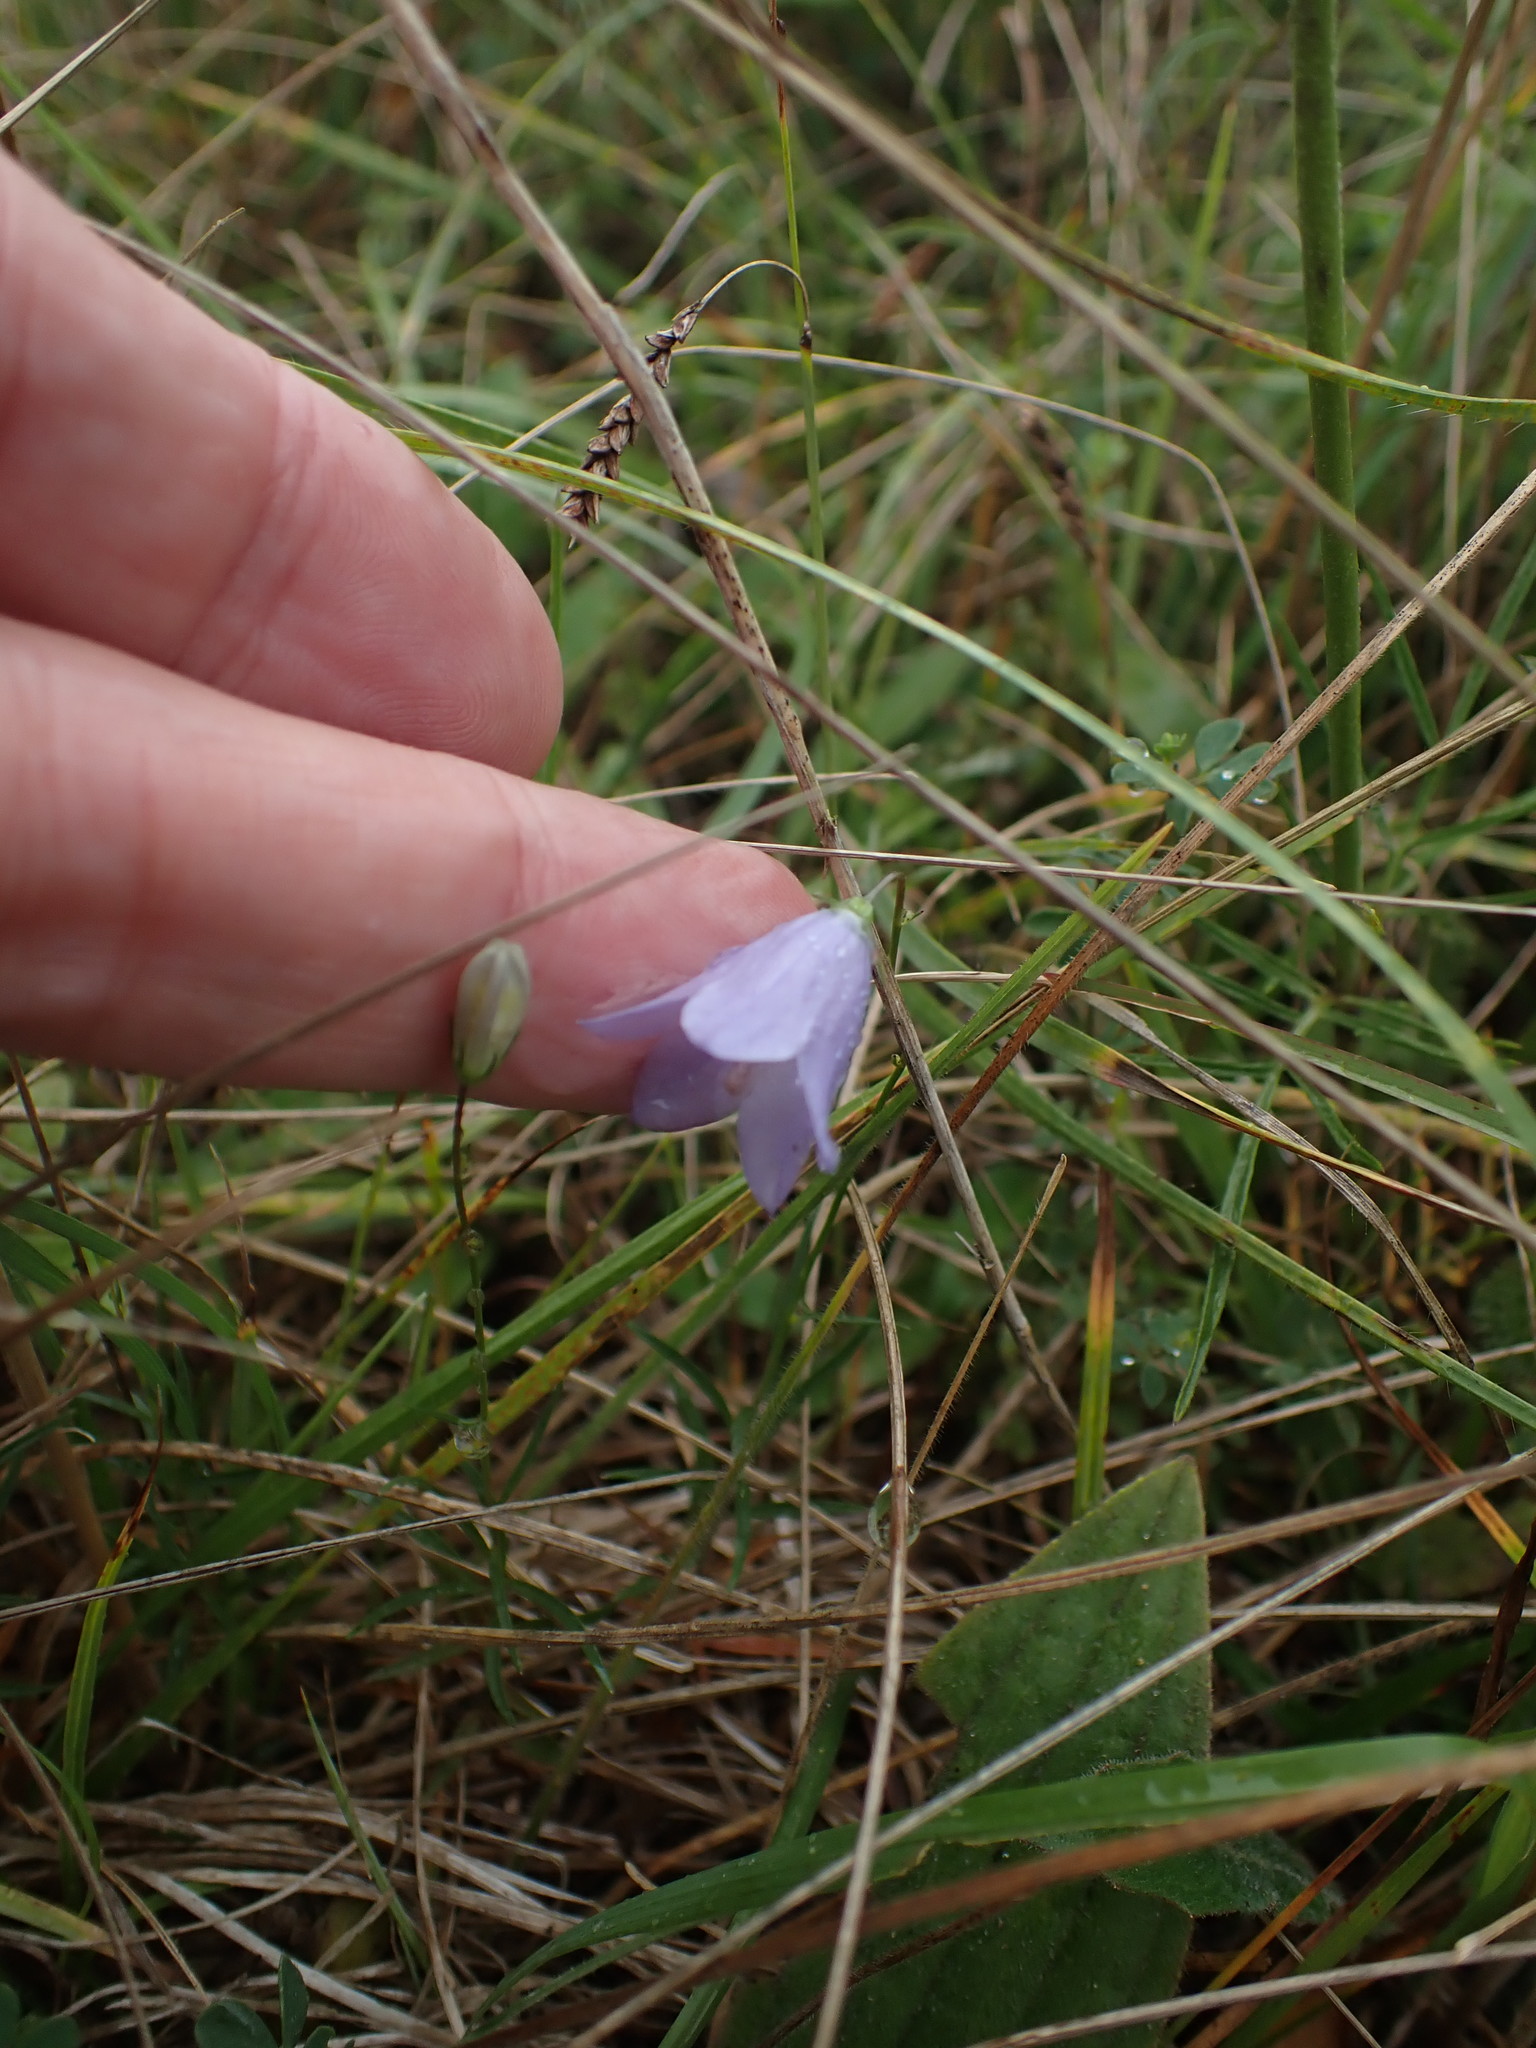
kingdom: Plantae
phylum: Tracheophyta
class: Magnoliopsida
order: Asterales
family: Campanulaceae
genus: Campanula
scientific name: Campanula rotundifolia
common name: Harebell
